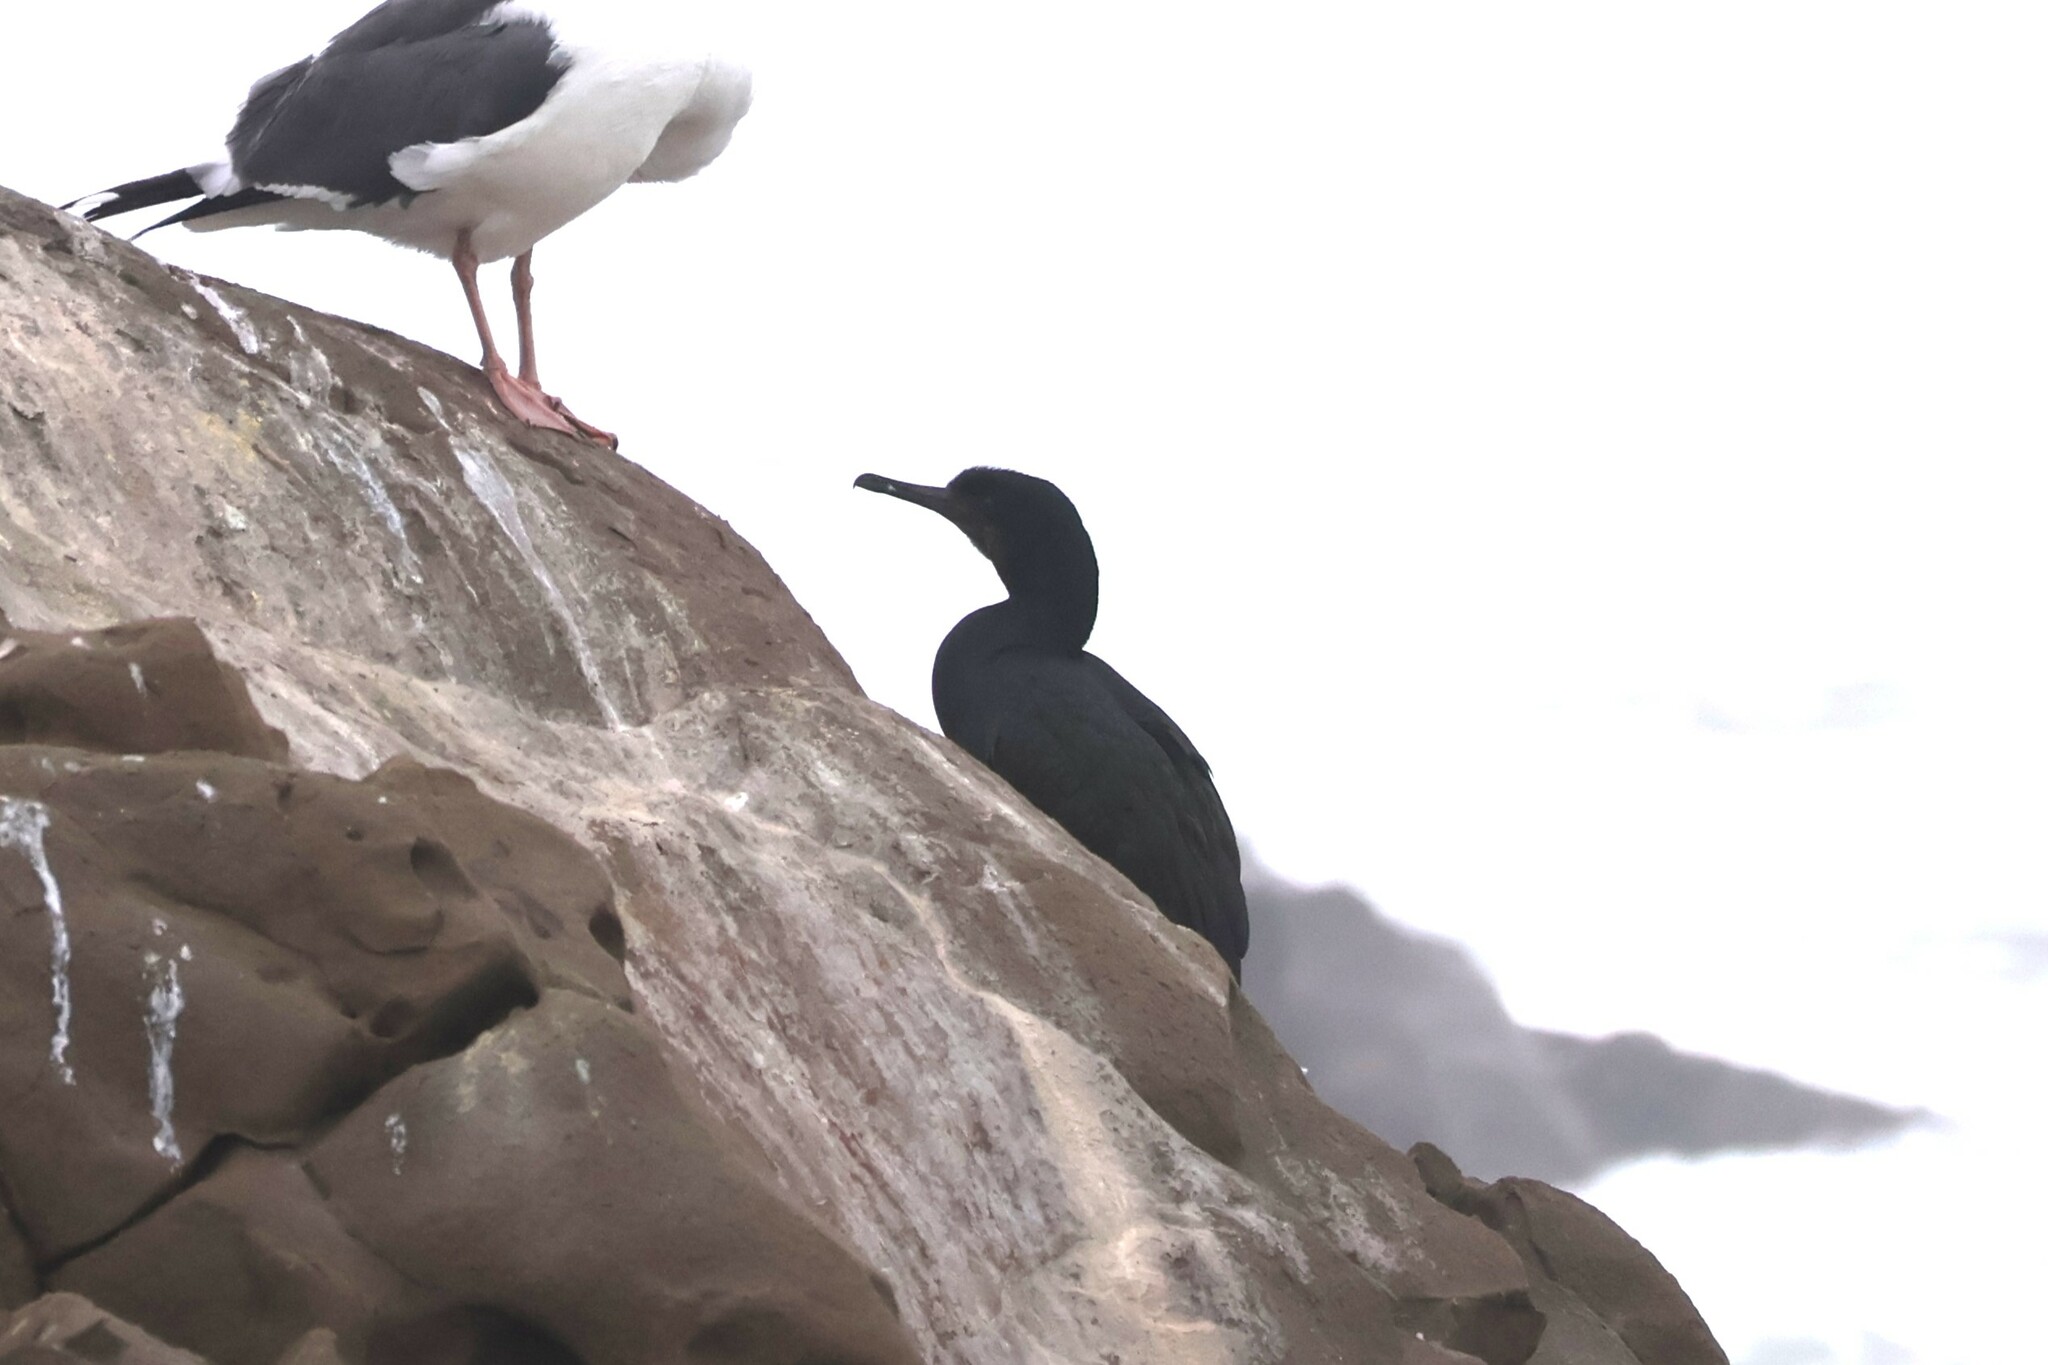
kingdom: Animalia
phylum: Chordata
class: Aves
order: Suliformes
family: Phalacrocoracidae
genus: Phalacrocorax
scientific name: Phalacrocorax pelagicus
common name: Pelagic cormorant
